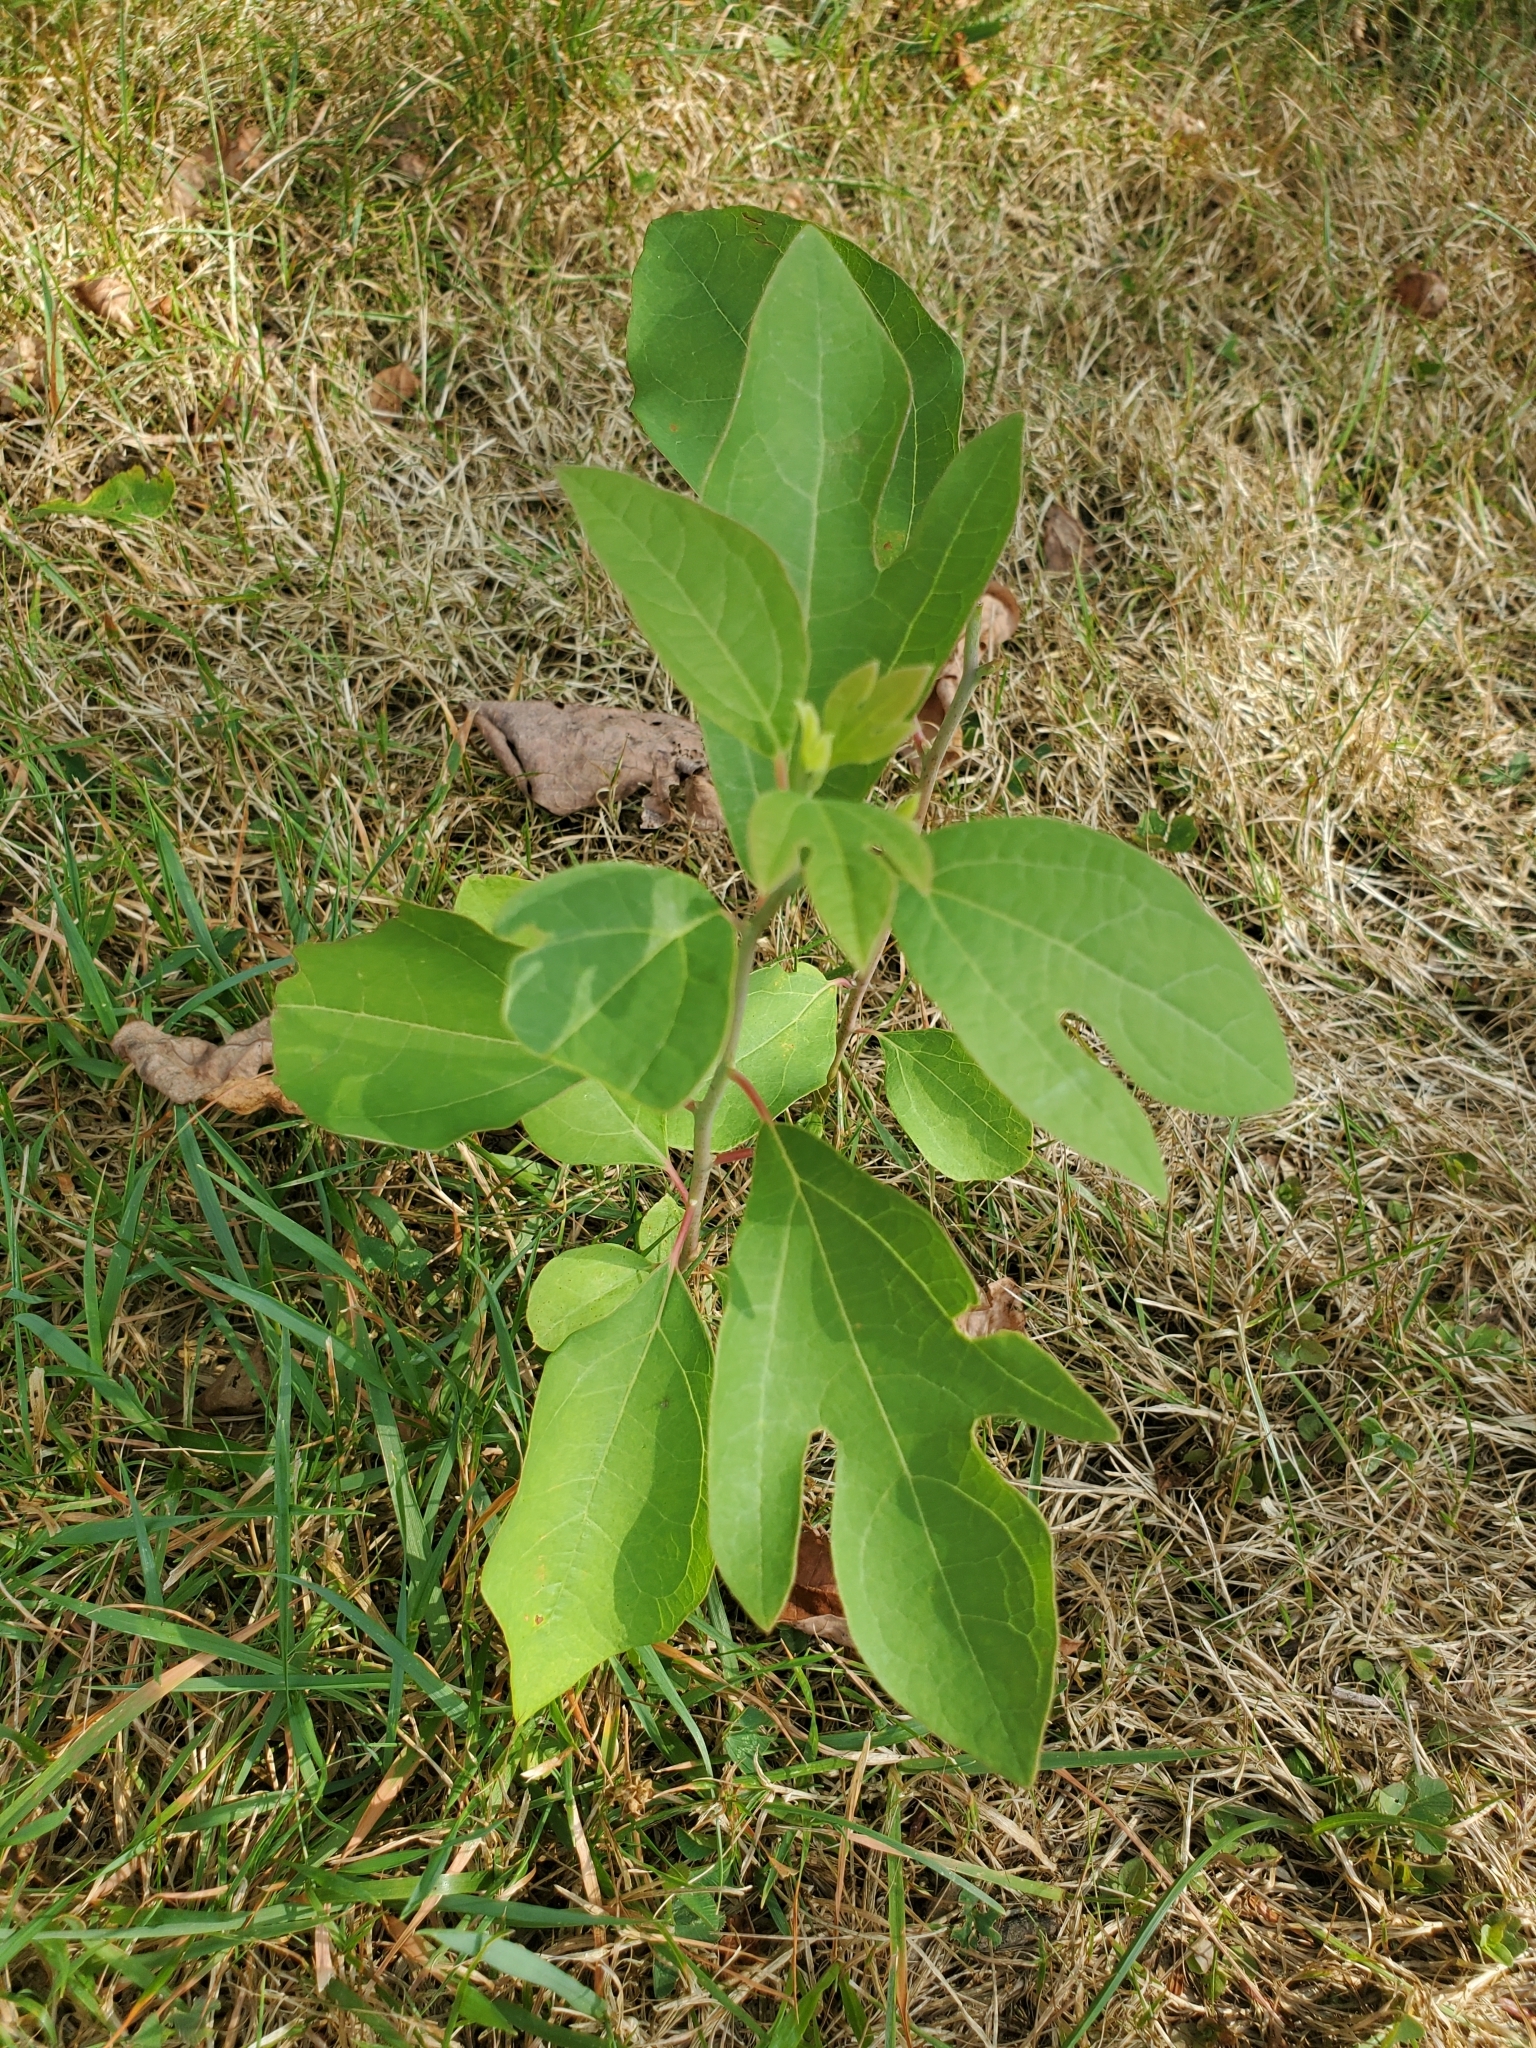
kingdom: Plantae
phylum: Tracheophyta
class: Magnoliopsida
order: Laurales
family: Lauraceae
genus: Sassafras
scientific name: Sassafras albidum
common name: Sassafras
